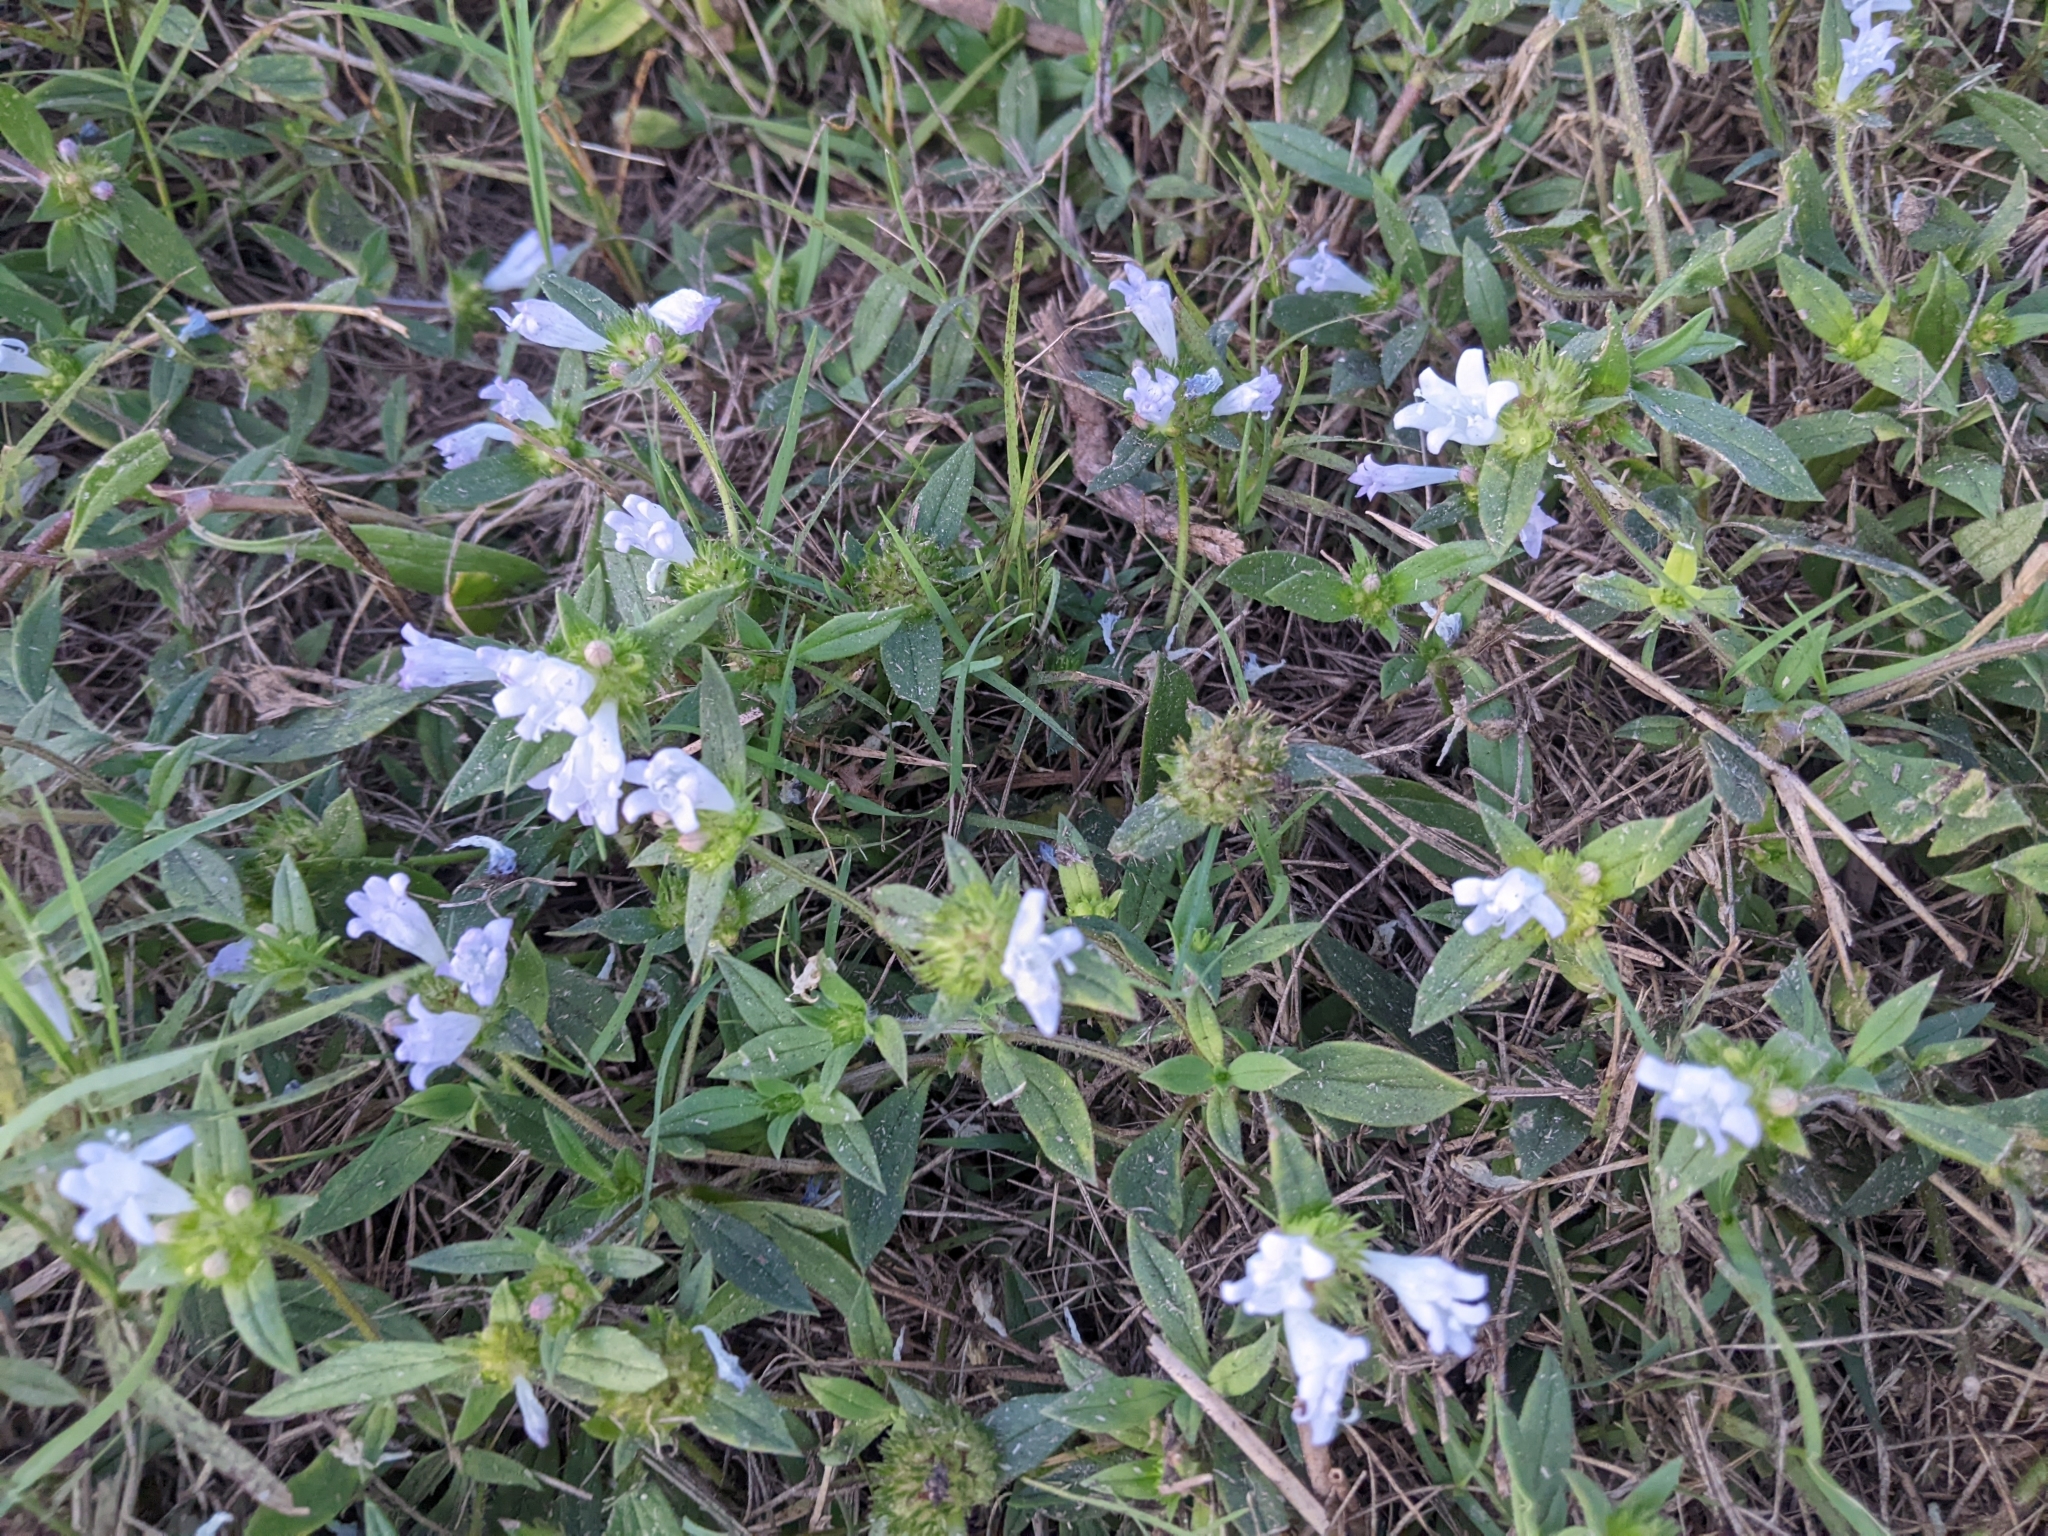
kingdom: Plantae
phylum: Tracheophyta
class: Magnoliopsida
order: Gentianales
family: Rubiaceae
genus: Richardia
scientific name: Richardia grandiflora
